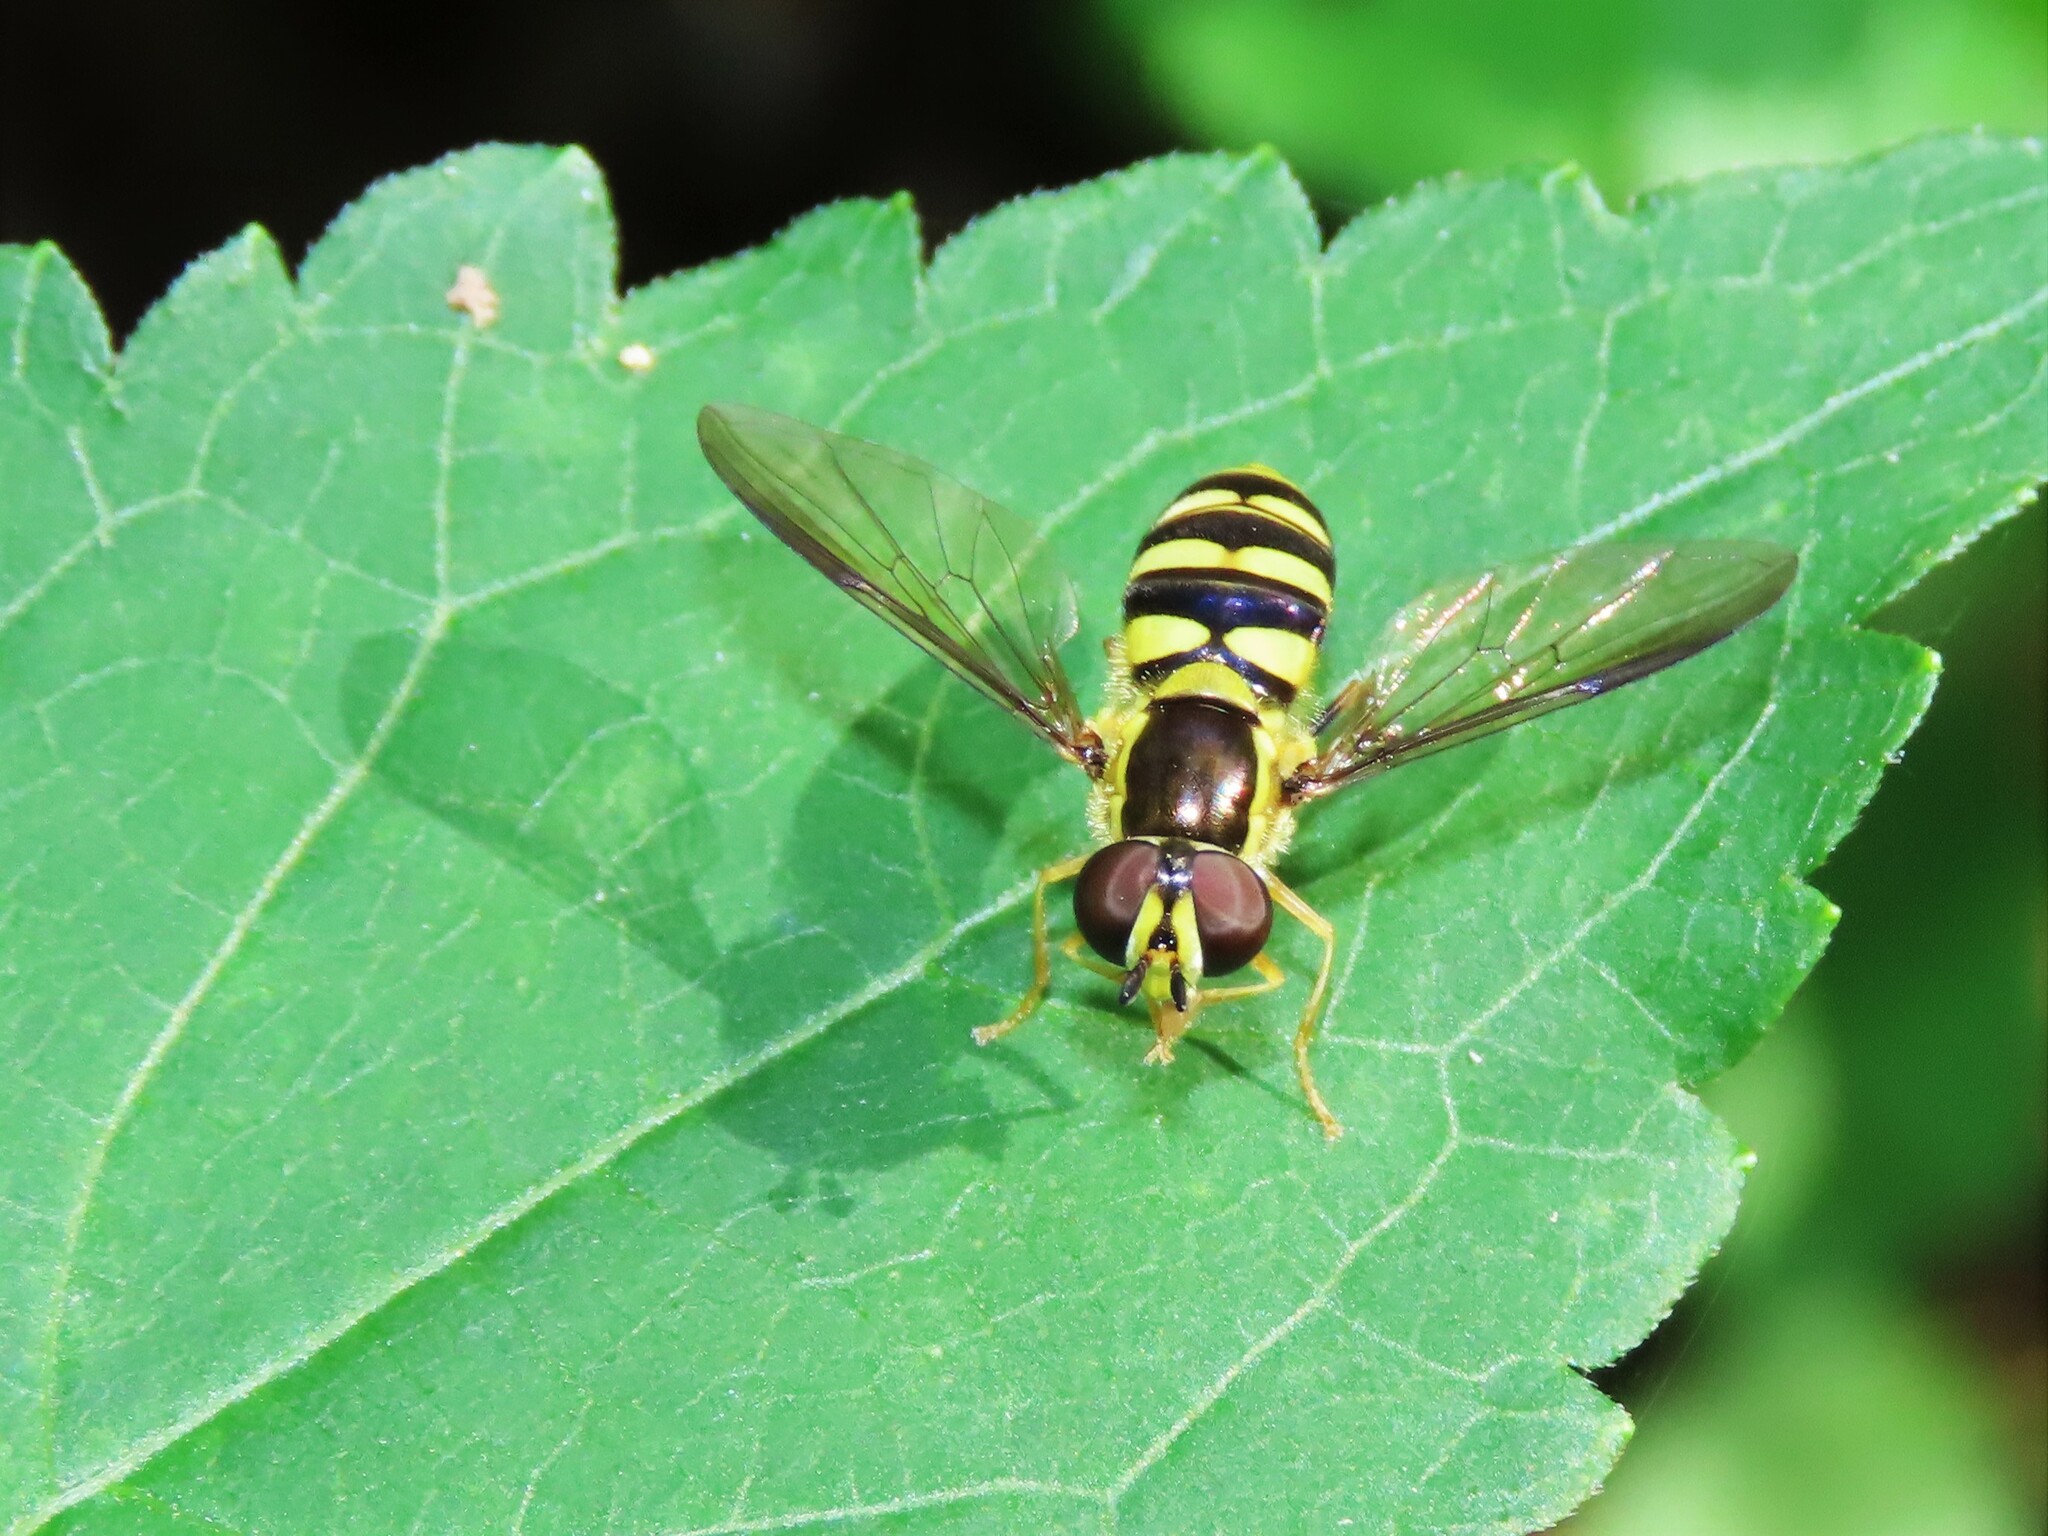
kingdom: Animalia
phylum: Arthropoda
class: Insecta
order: Diptera
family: Syrphidae
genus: Epistrophella
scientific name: Epistrophella emarginata
